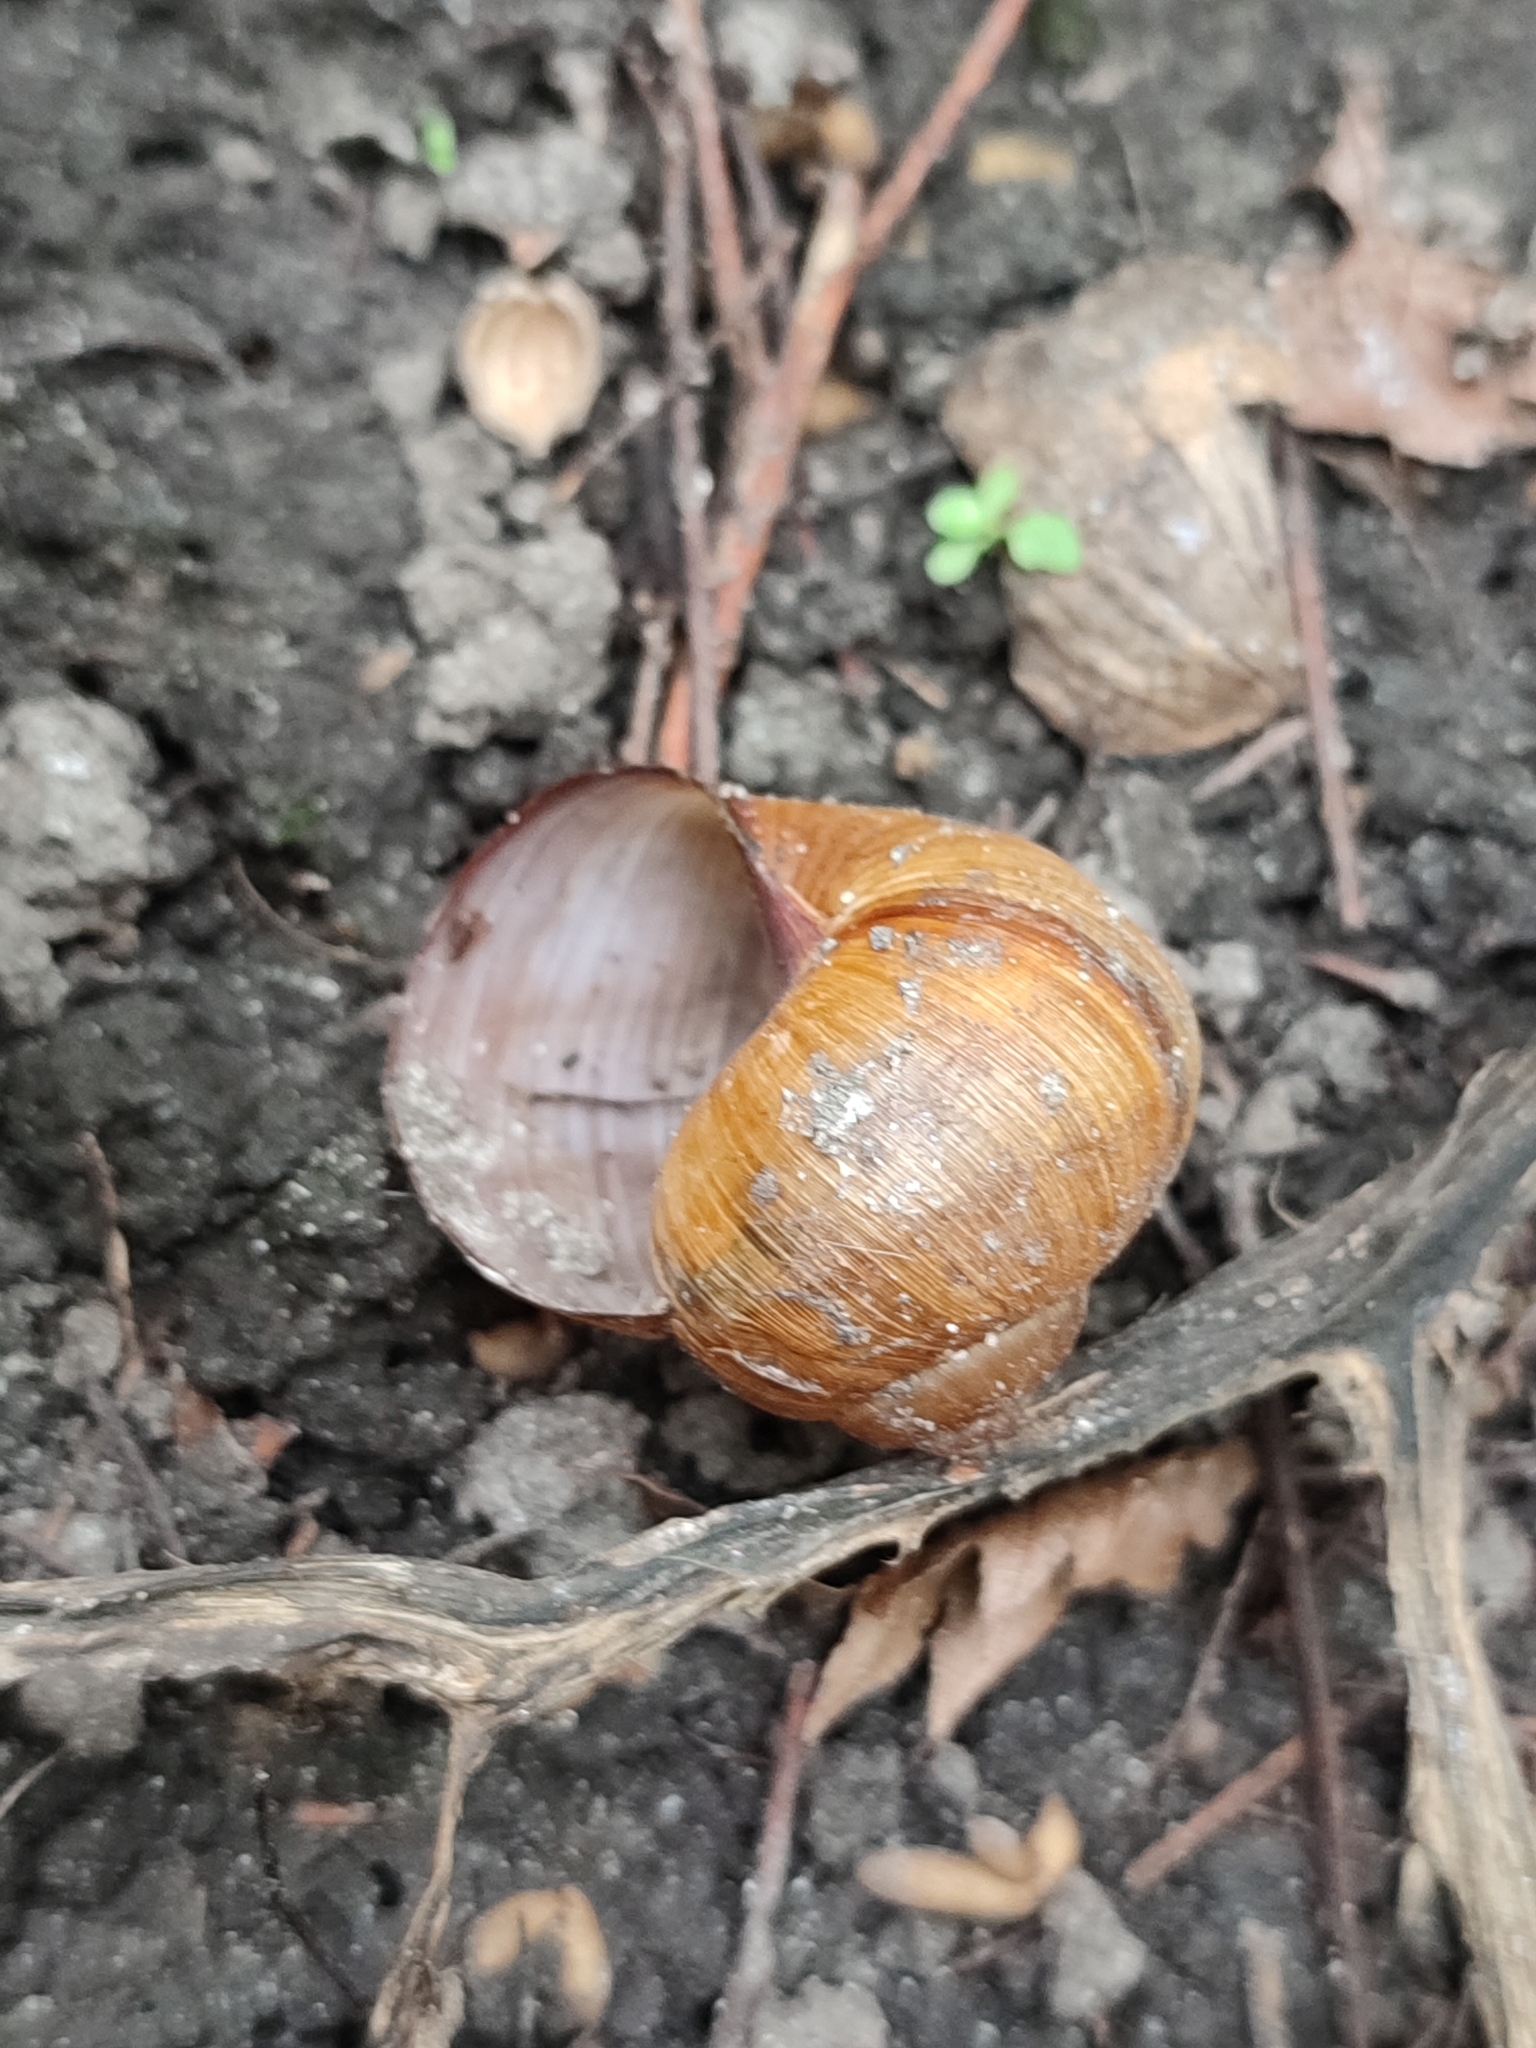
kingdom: Animalia
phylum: Mollusca
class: Gastropoda
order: Stylommatophora
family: Helicidae
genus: Helix
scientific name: Helix pomatia
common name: Roman snail
